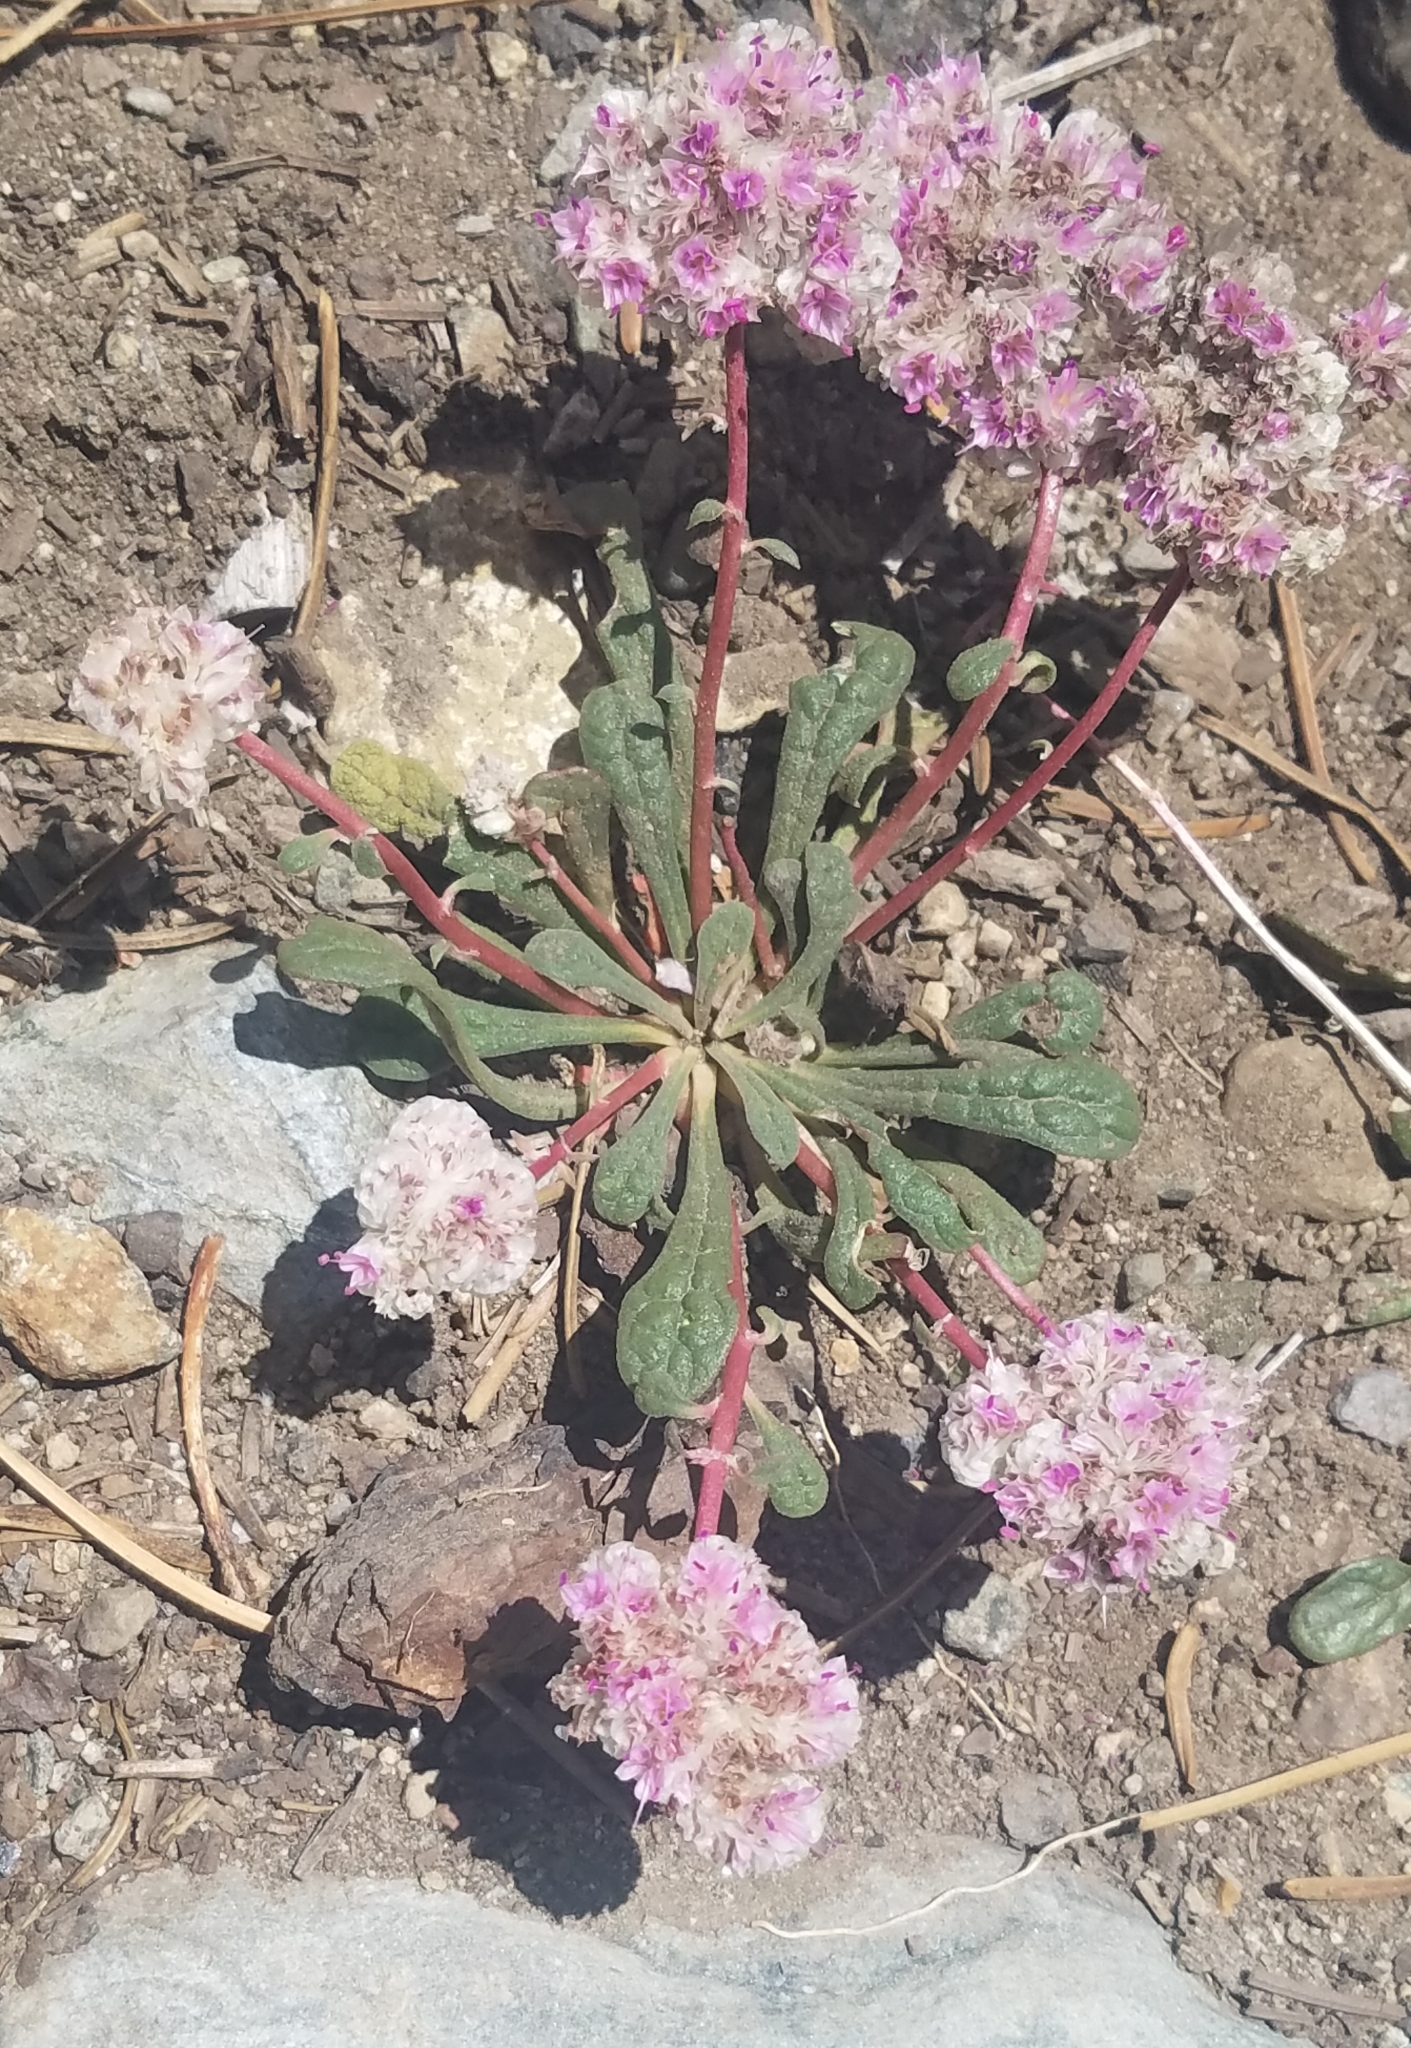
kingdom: Plantae
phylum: Tracheophyta
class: Magnoliopsida
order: Caryophyllales
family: Montiaceae
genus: Calyptridium
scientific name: Calyptridium monospermum
